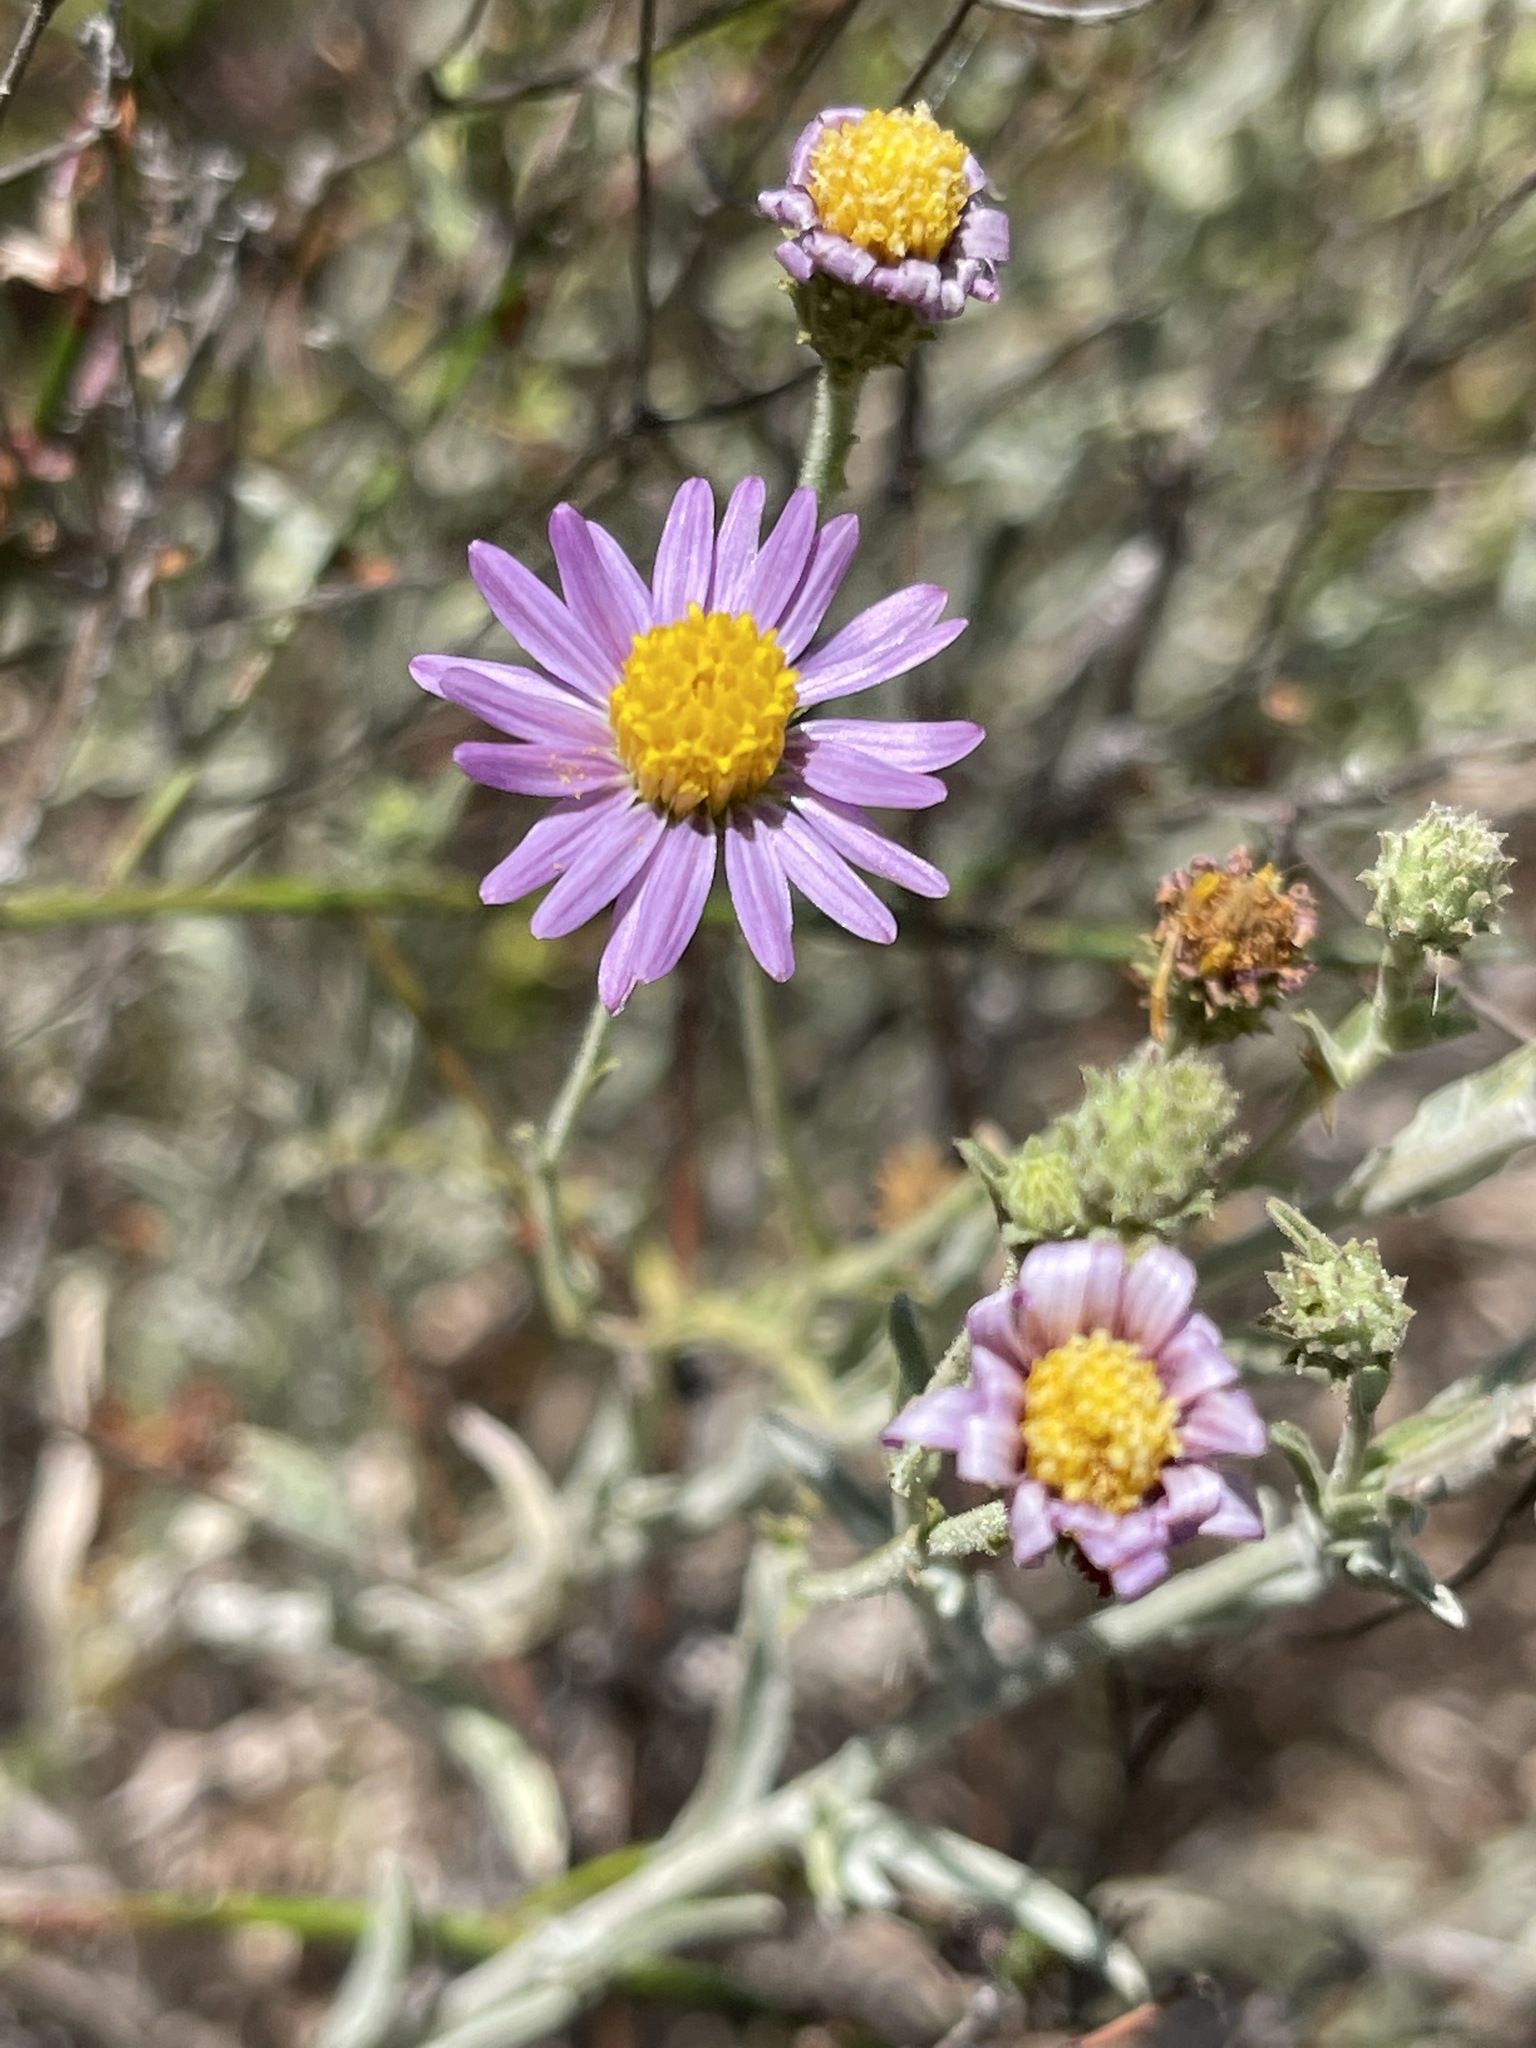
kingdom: Plantae
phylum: Tracheophyta
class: Magnoliopsida
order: Asterales
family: Asteraceae
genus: Corethrogyne
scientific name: Corethrogyne filaginifolia
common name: Sand-aster
